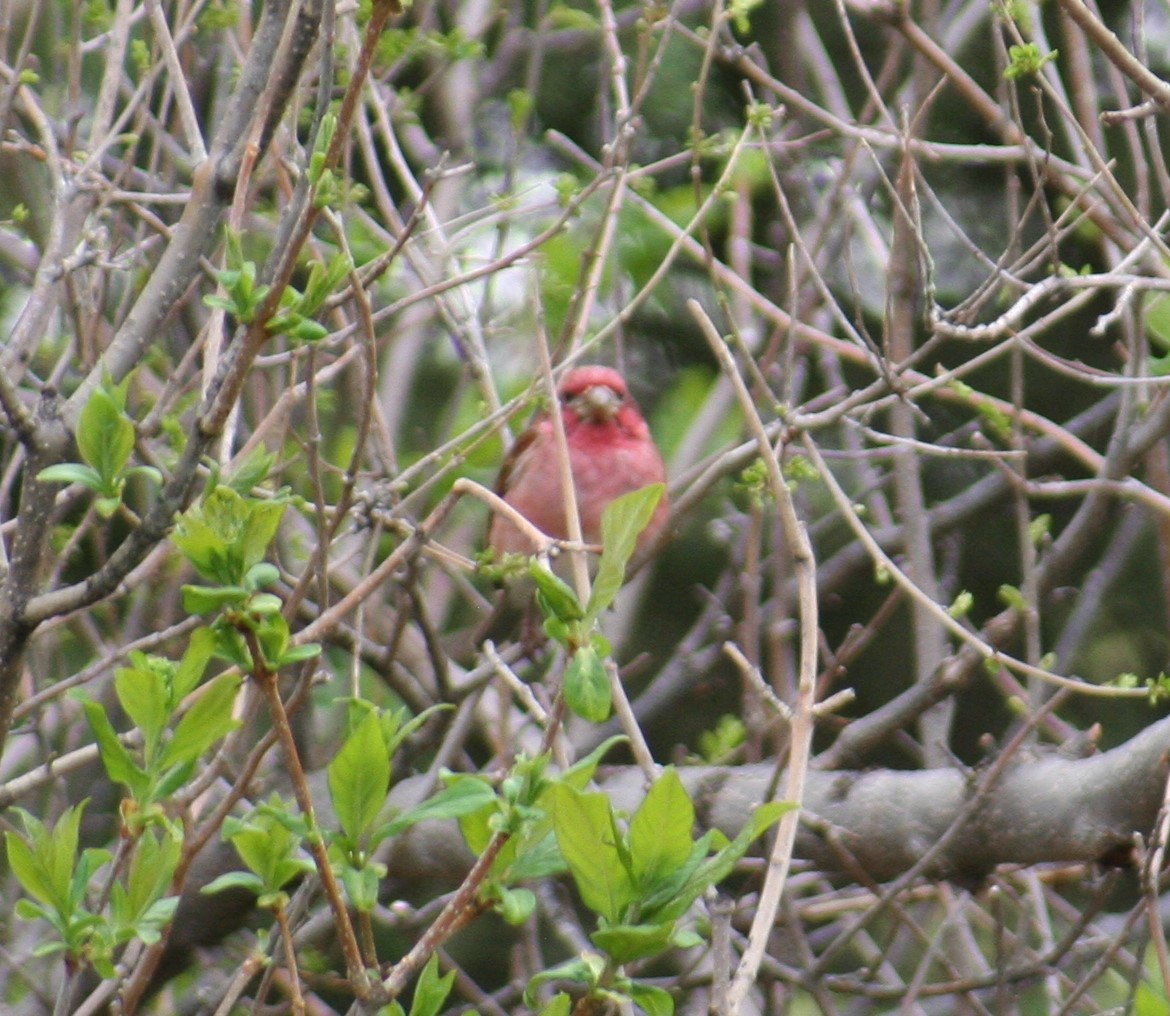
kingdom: Animalia
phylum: Chordata
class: Aves
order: Passeriformes
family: Fringillidae
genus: Haemorhous
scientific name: Haemorhous purpureus
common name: Purple finch
